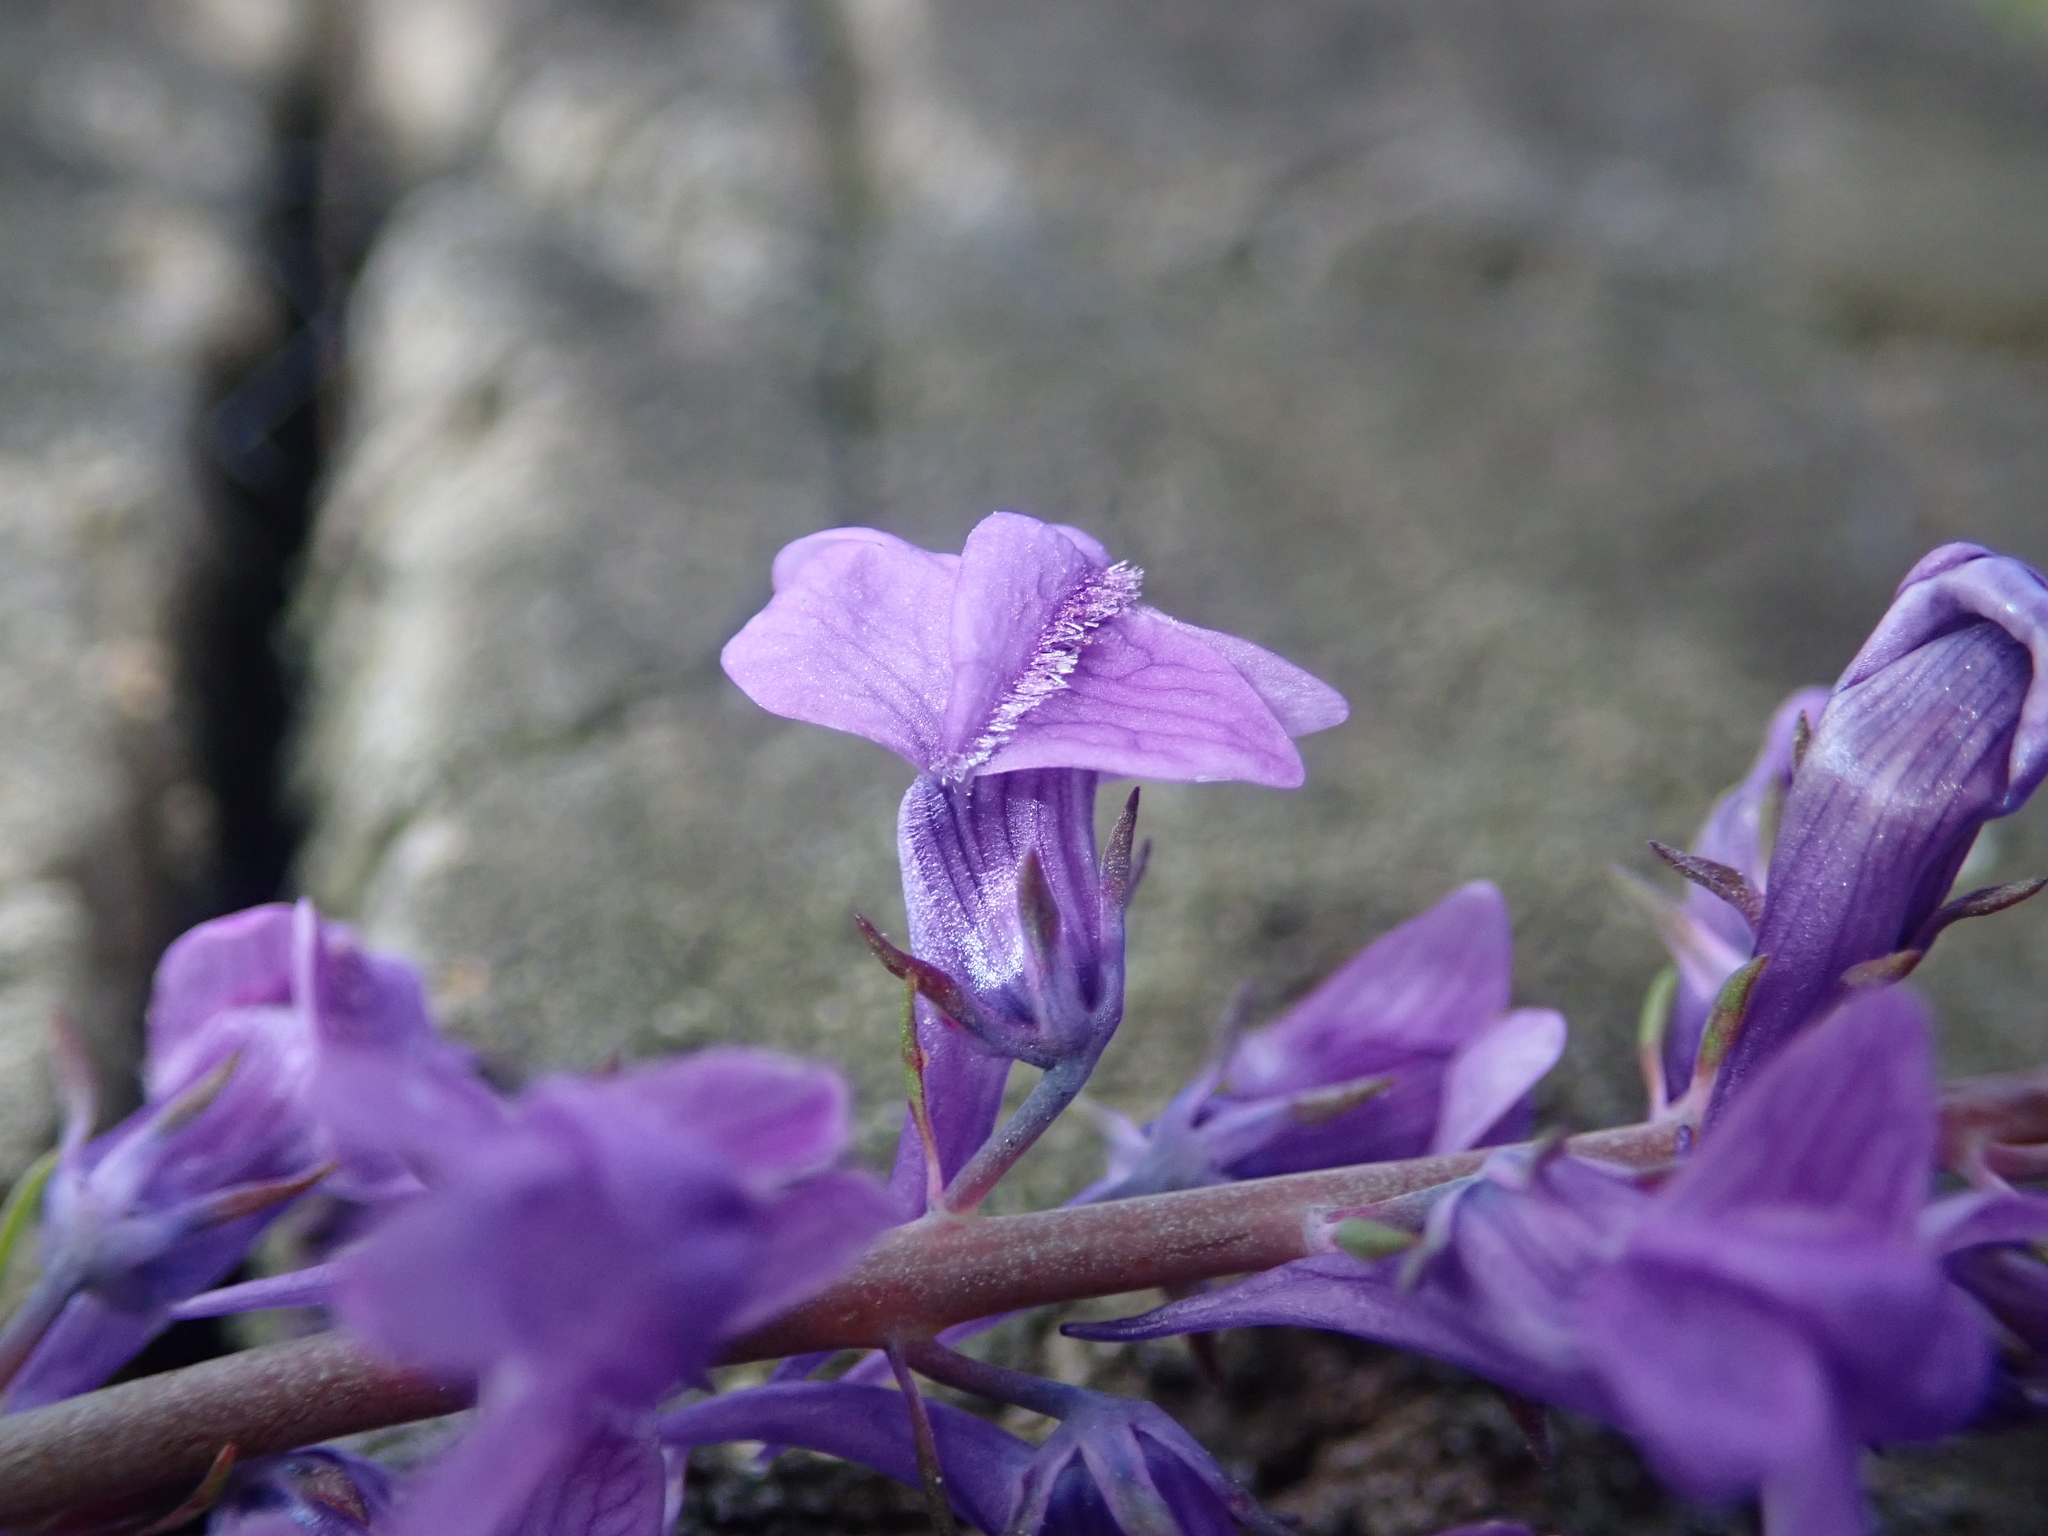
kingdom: Plantae
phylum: Tracheophyta
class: Magnoliopsida
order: Lamiales
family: Plantaginaceae
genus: Linaria
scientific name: Linaria purpurea
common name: Purple toadflax
